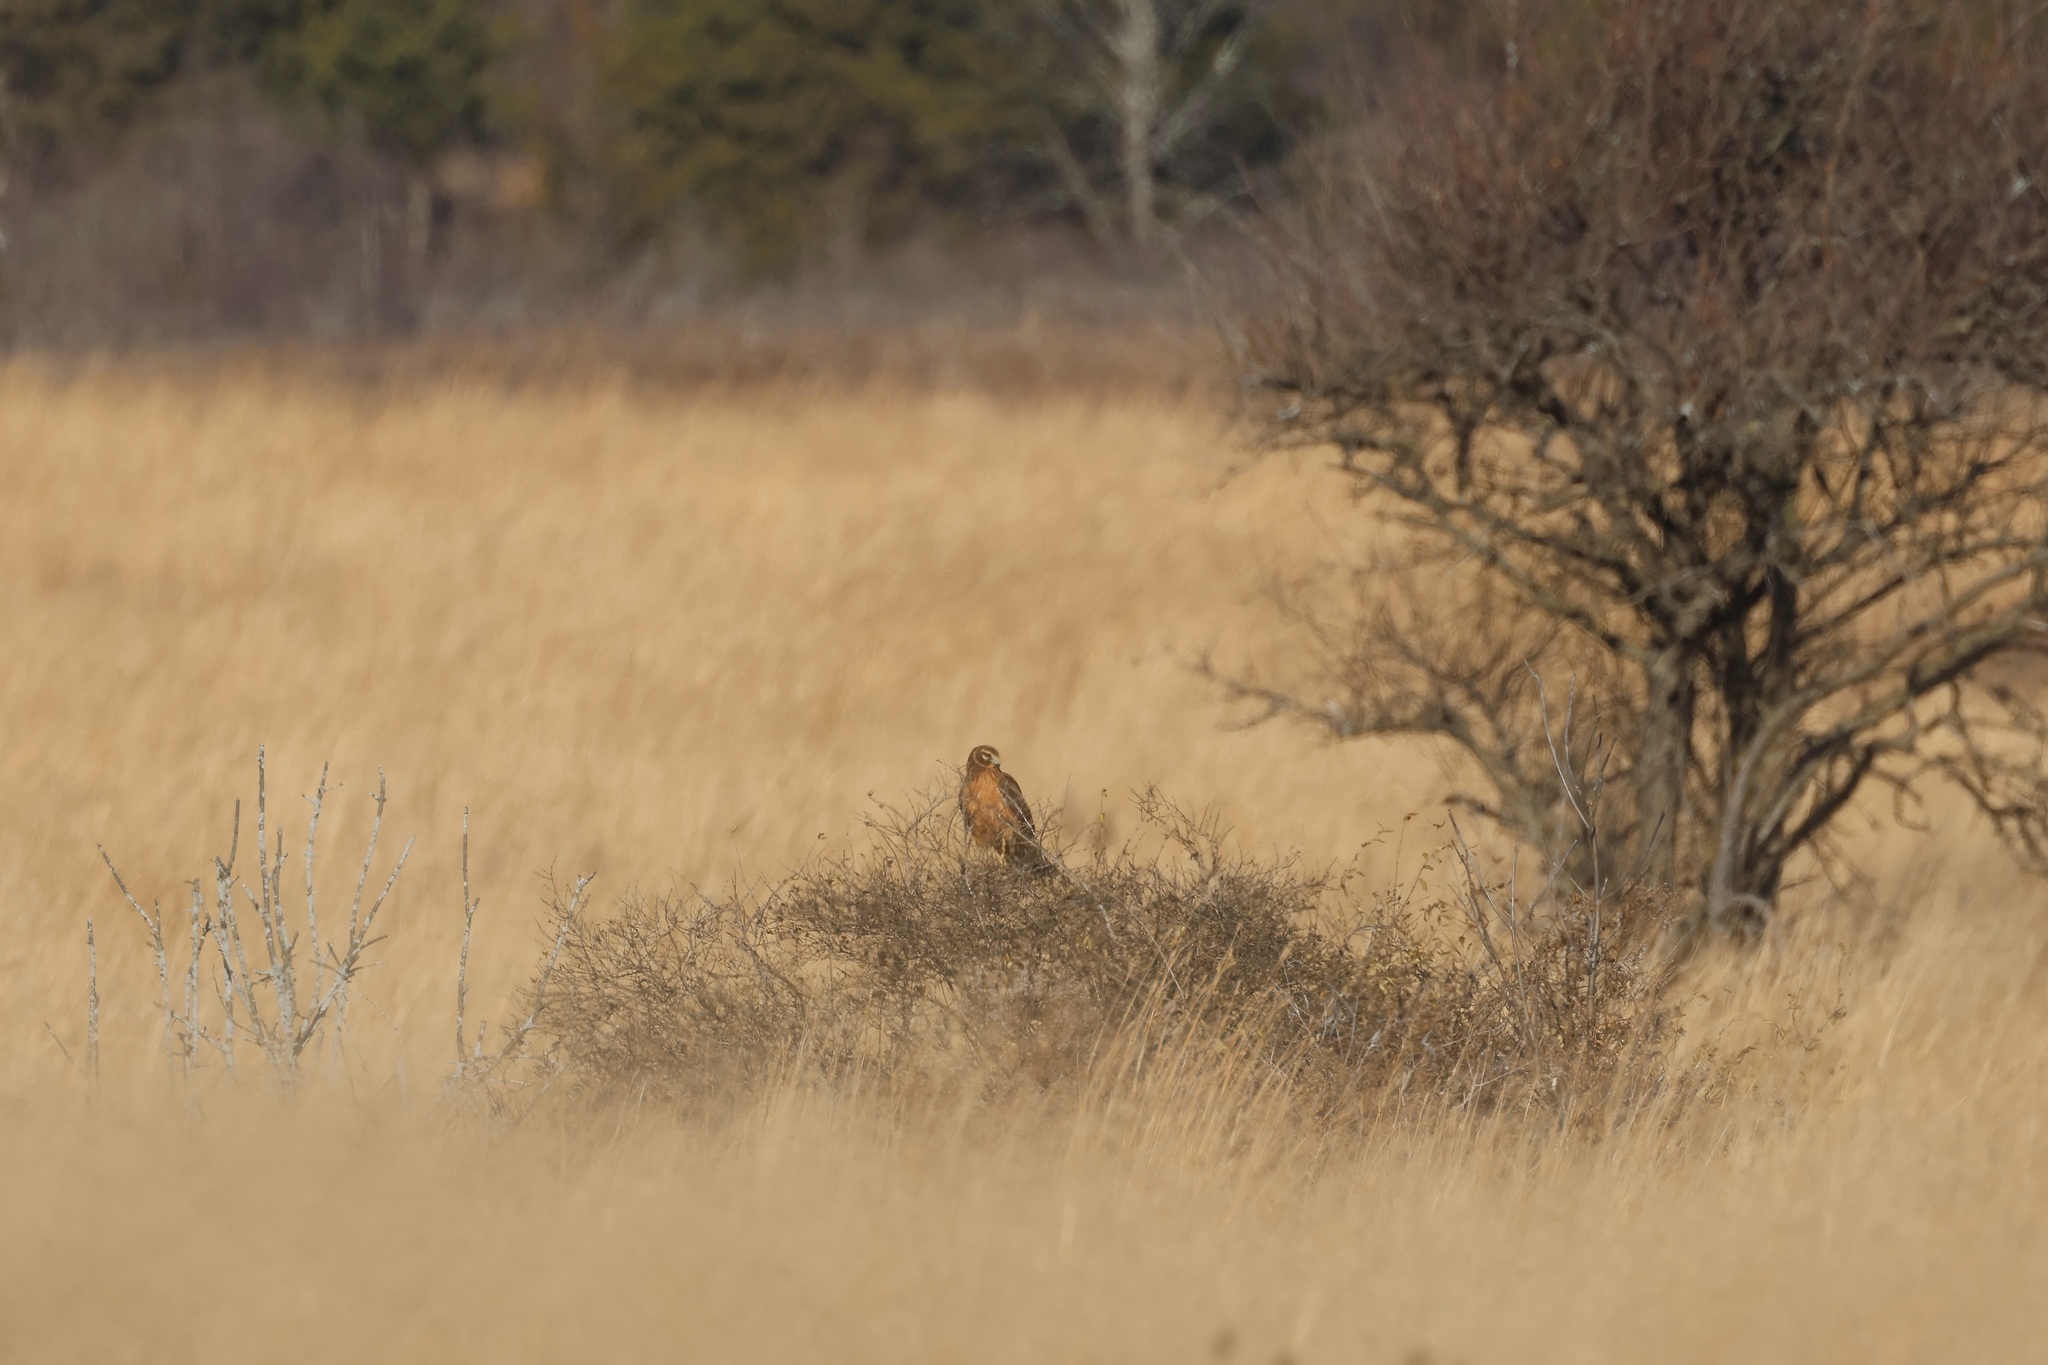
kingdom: Animalia
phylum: Chordata
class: Aves
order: Accipitriformes
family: Accipitridae
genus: Circus
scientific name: Circus cyaneus
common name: Hen harrier
